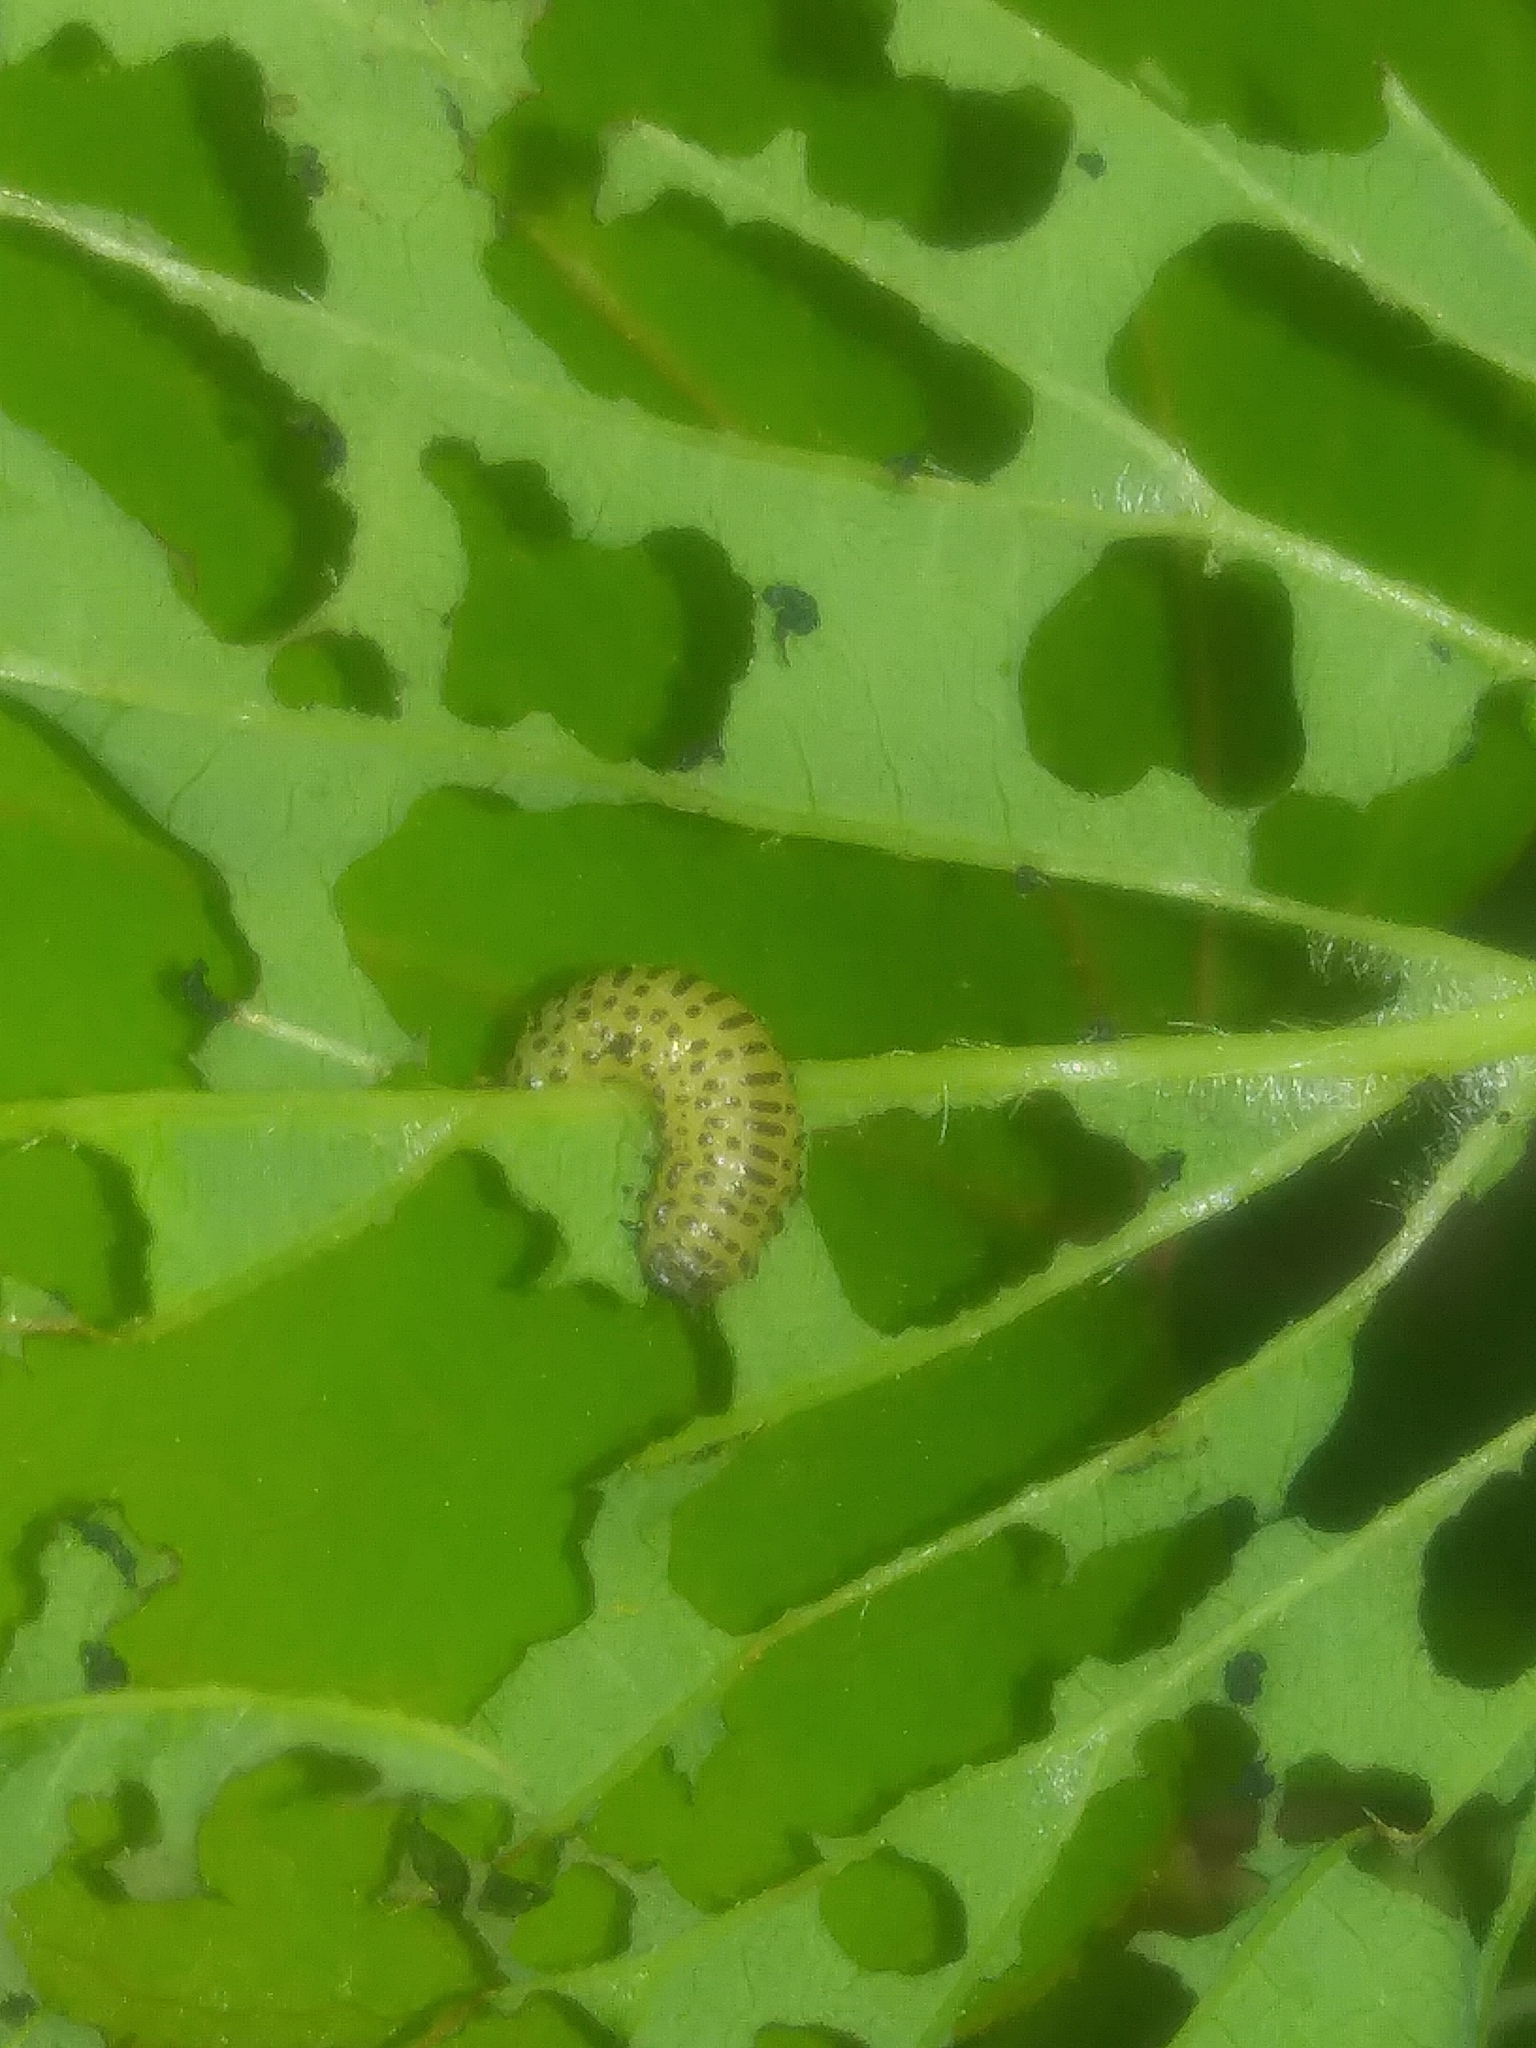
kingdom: Plantae
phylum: Tracheophyta
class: Magnoliopsida
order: Dipsacales
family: Viburnaceae
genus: Viburnum
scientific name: Viburnum dentatum
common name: Arrow-wood
